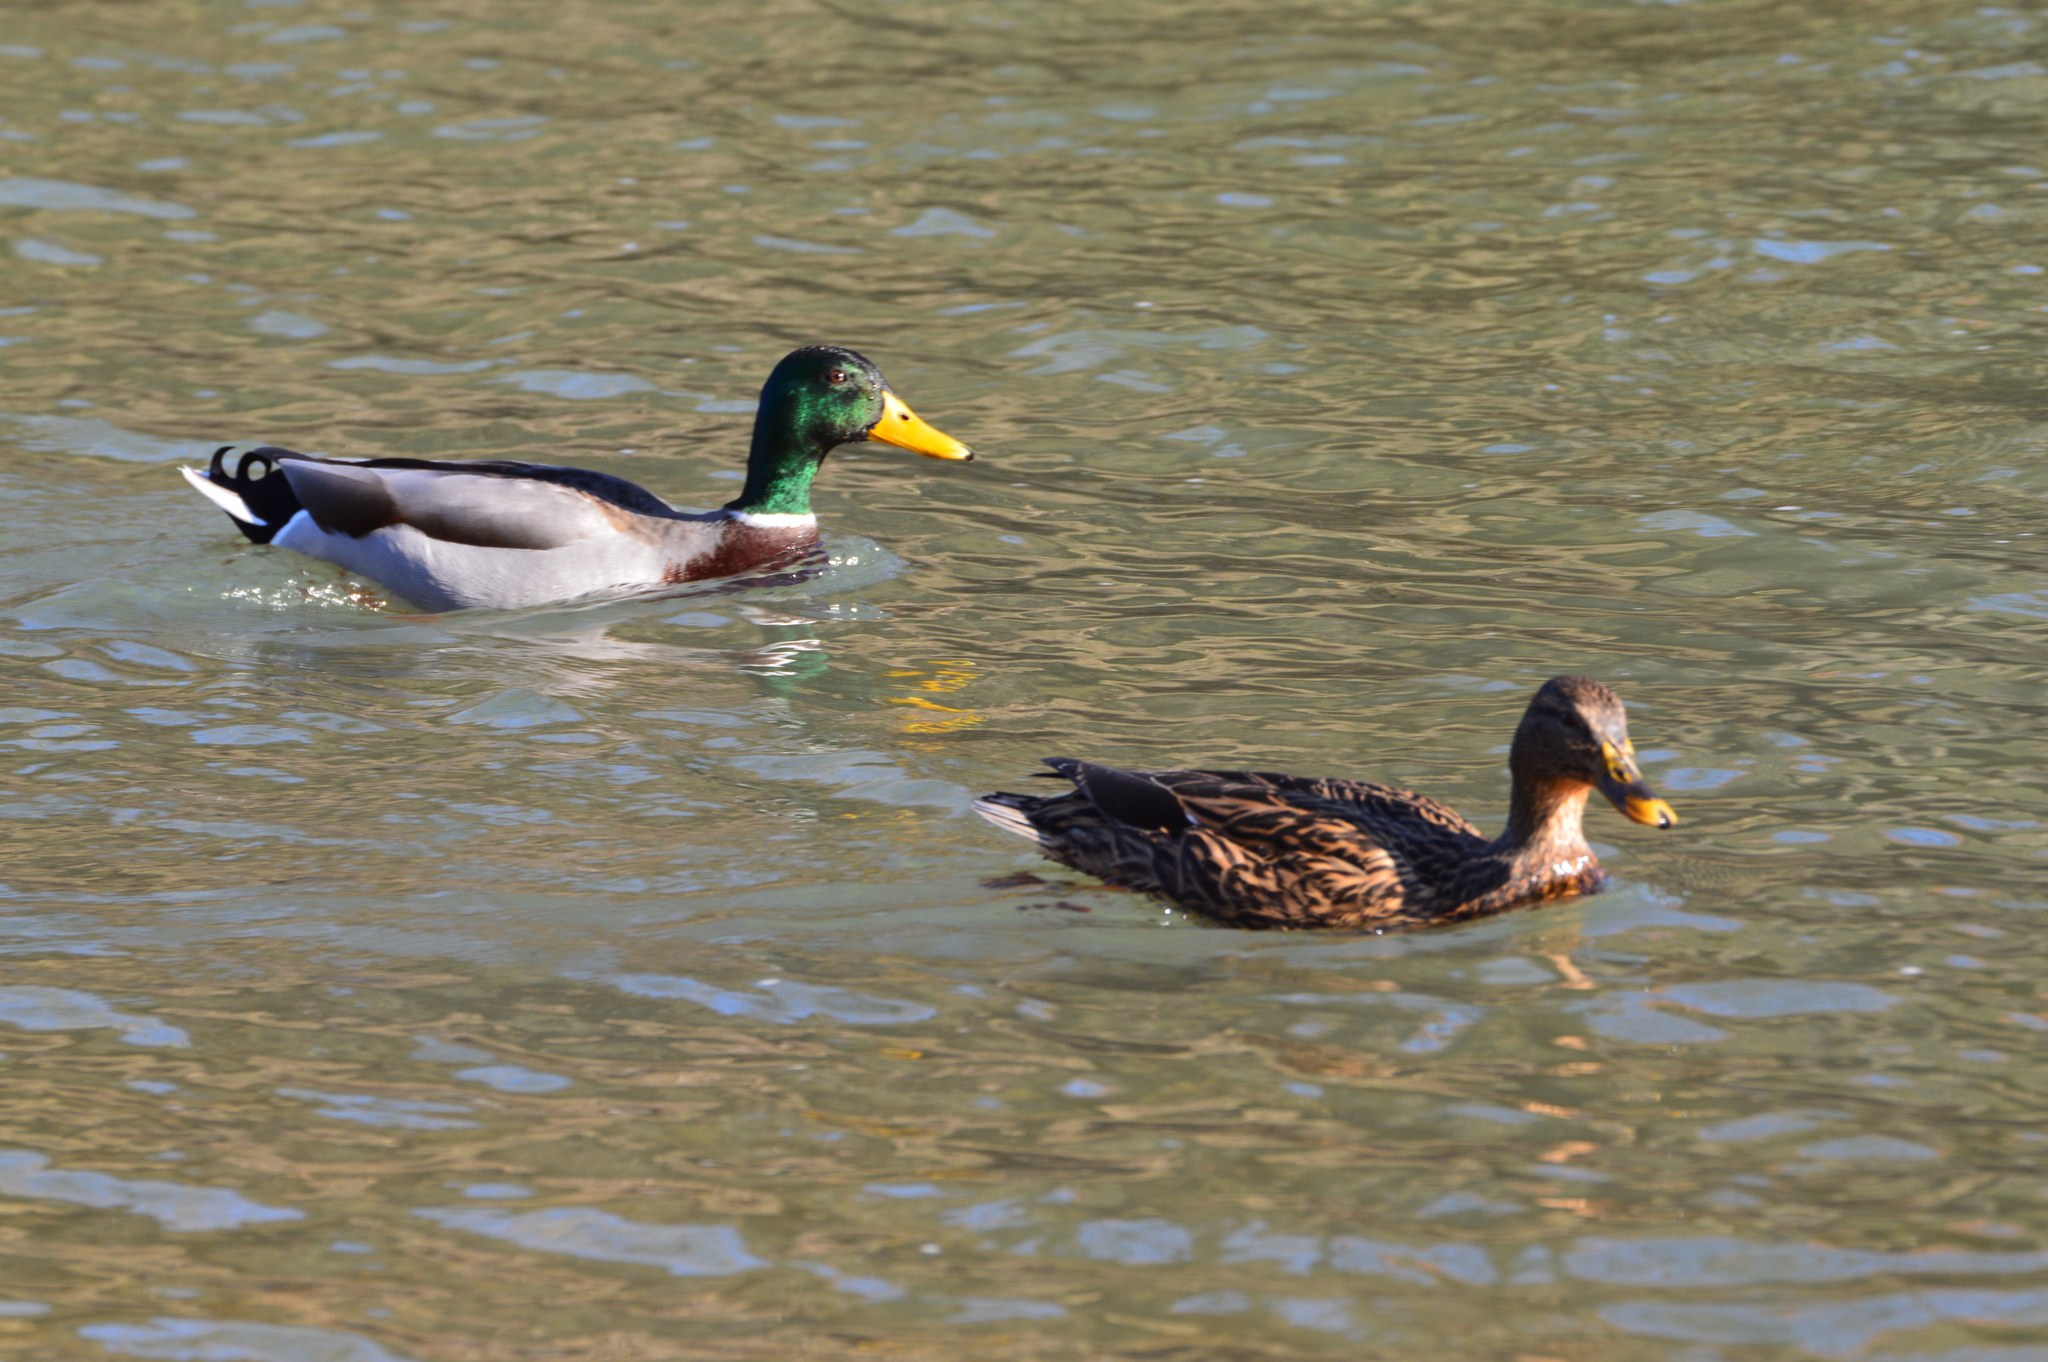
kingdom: Animalia
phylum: Chordata
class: Aves
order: Anseriformes
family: Anatidae
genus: Anas
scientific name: Anas platyrhynchos
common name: Mallard
